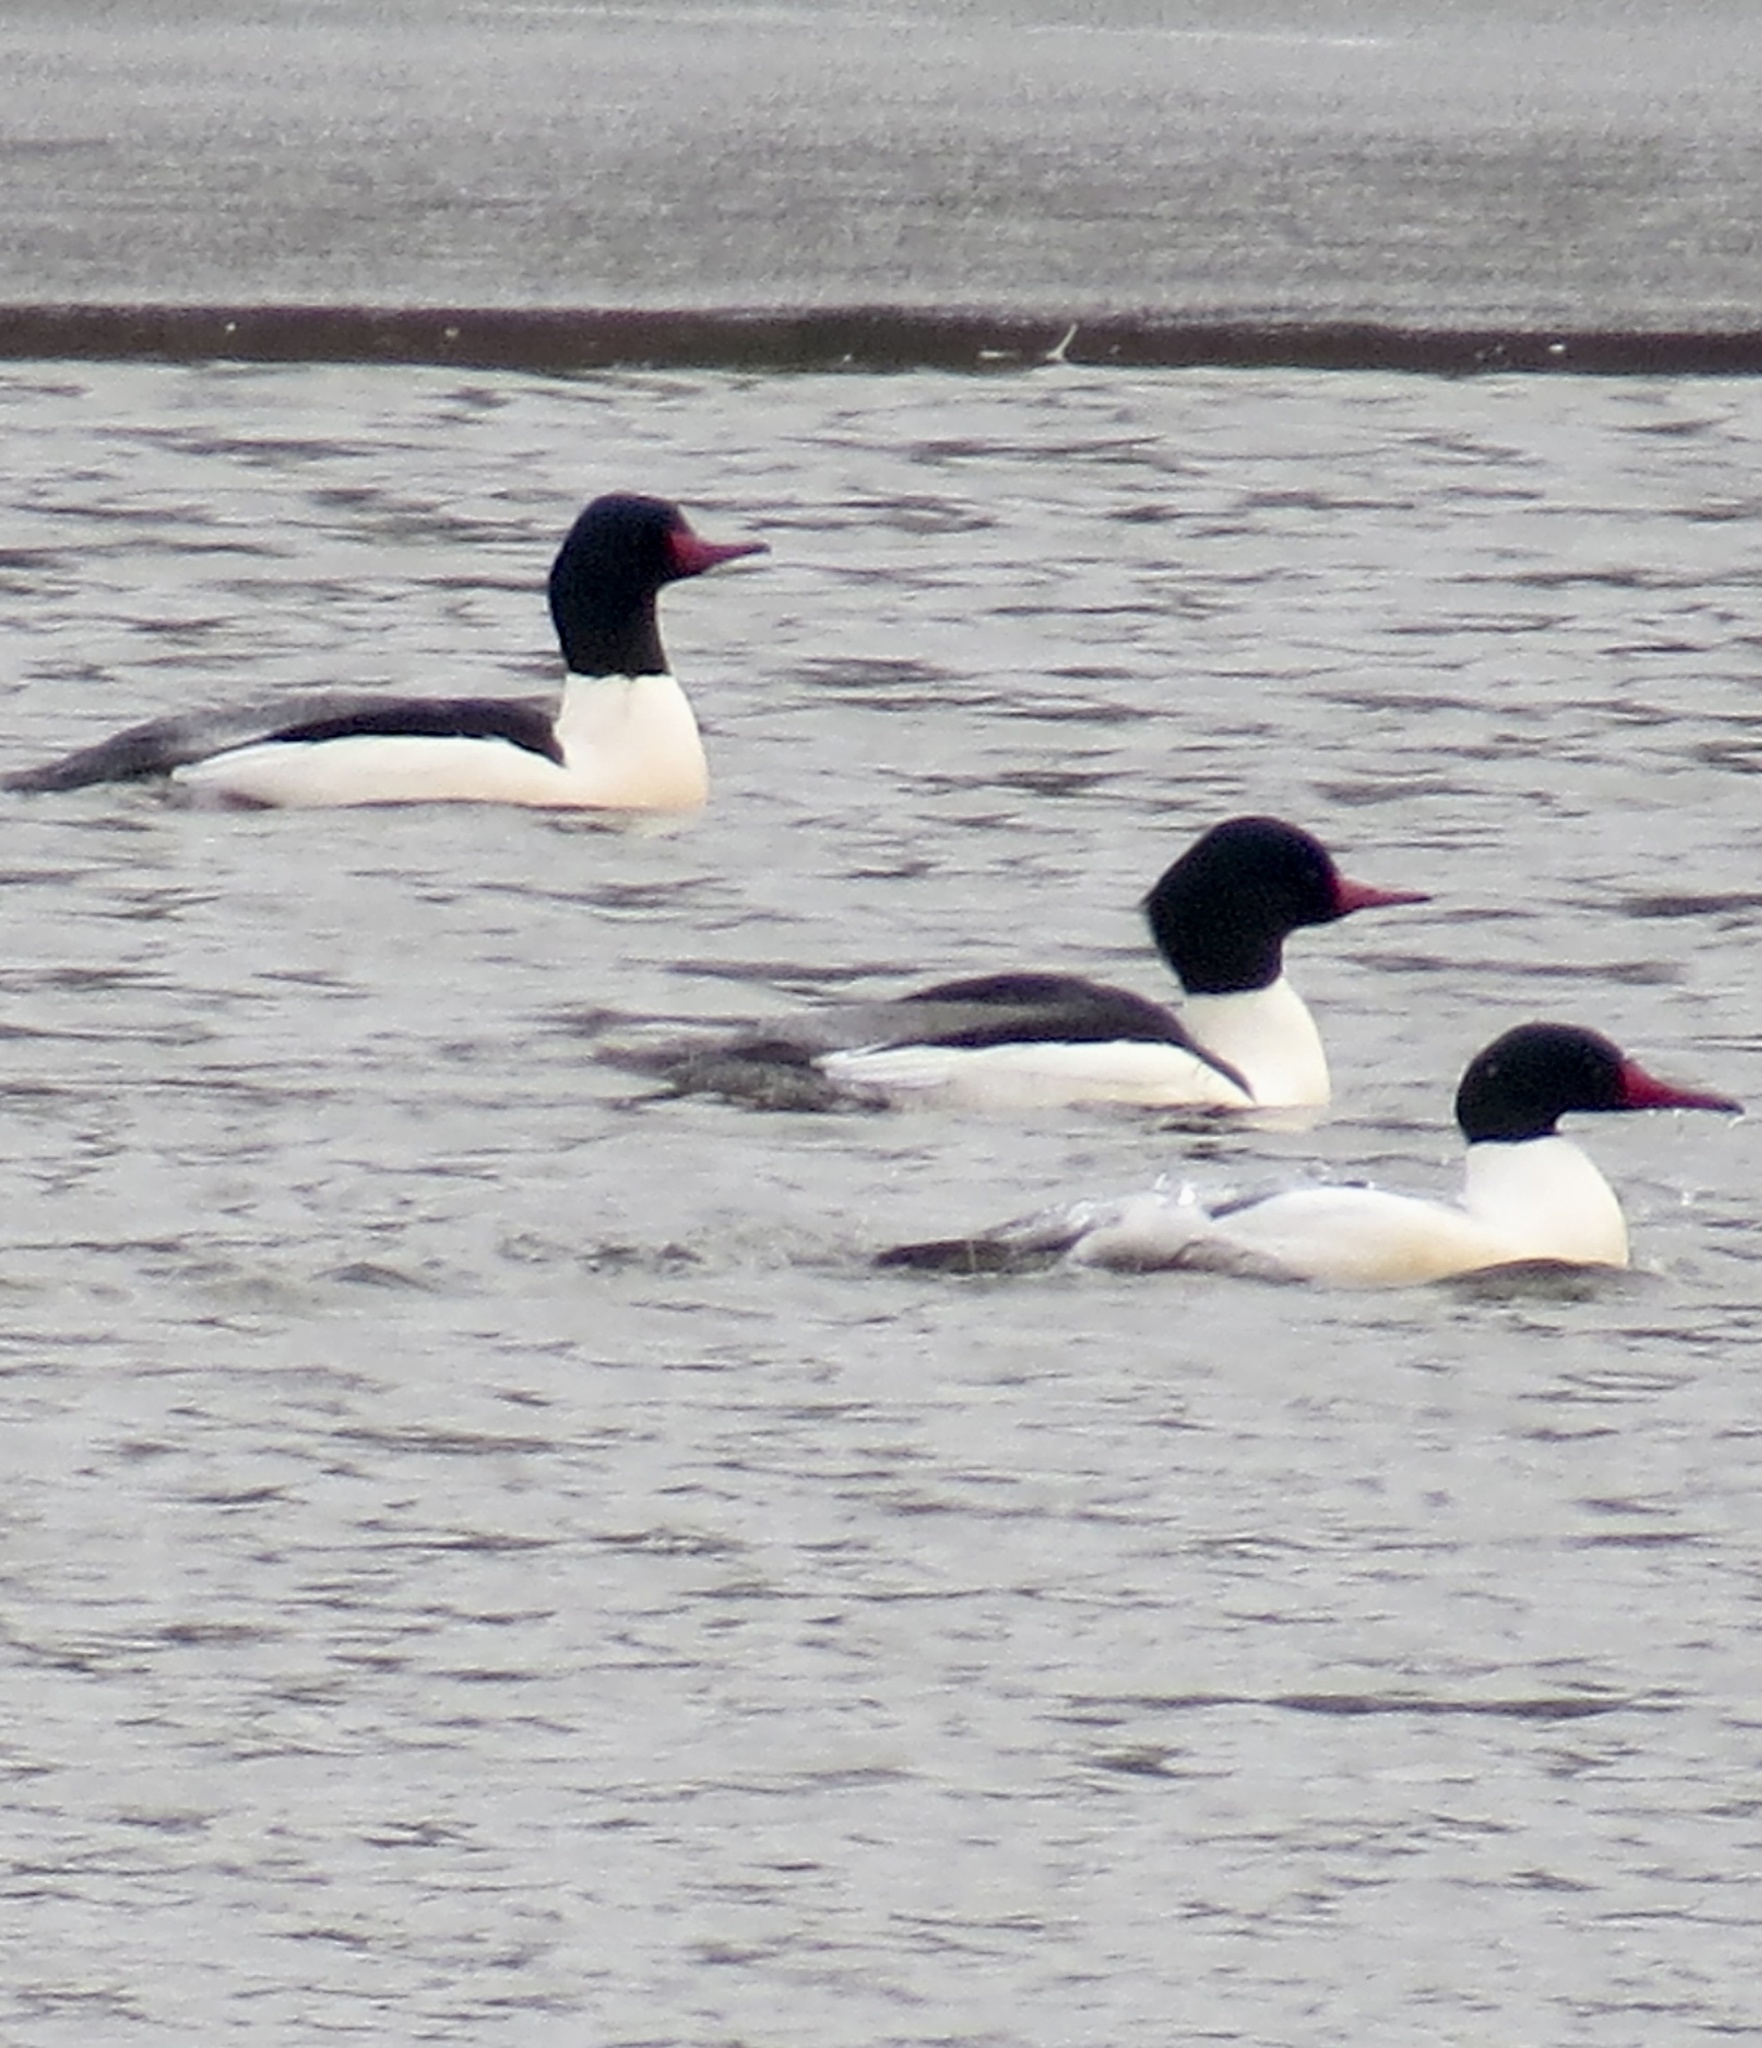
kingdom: Animalia
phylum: Chordata
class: Aves
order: Anseriformes
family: Anatidae
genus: Mergus
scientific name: Mergus merganser
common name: Common merganser
